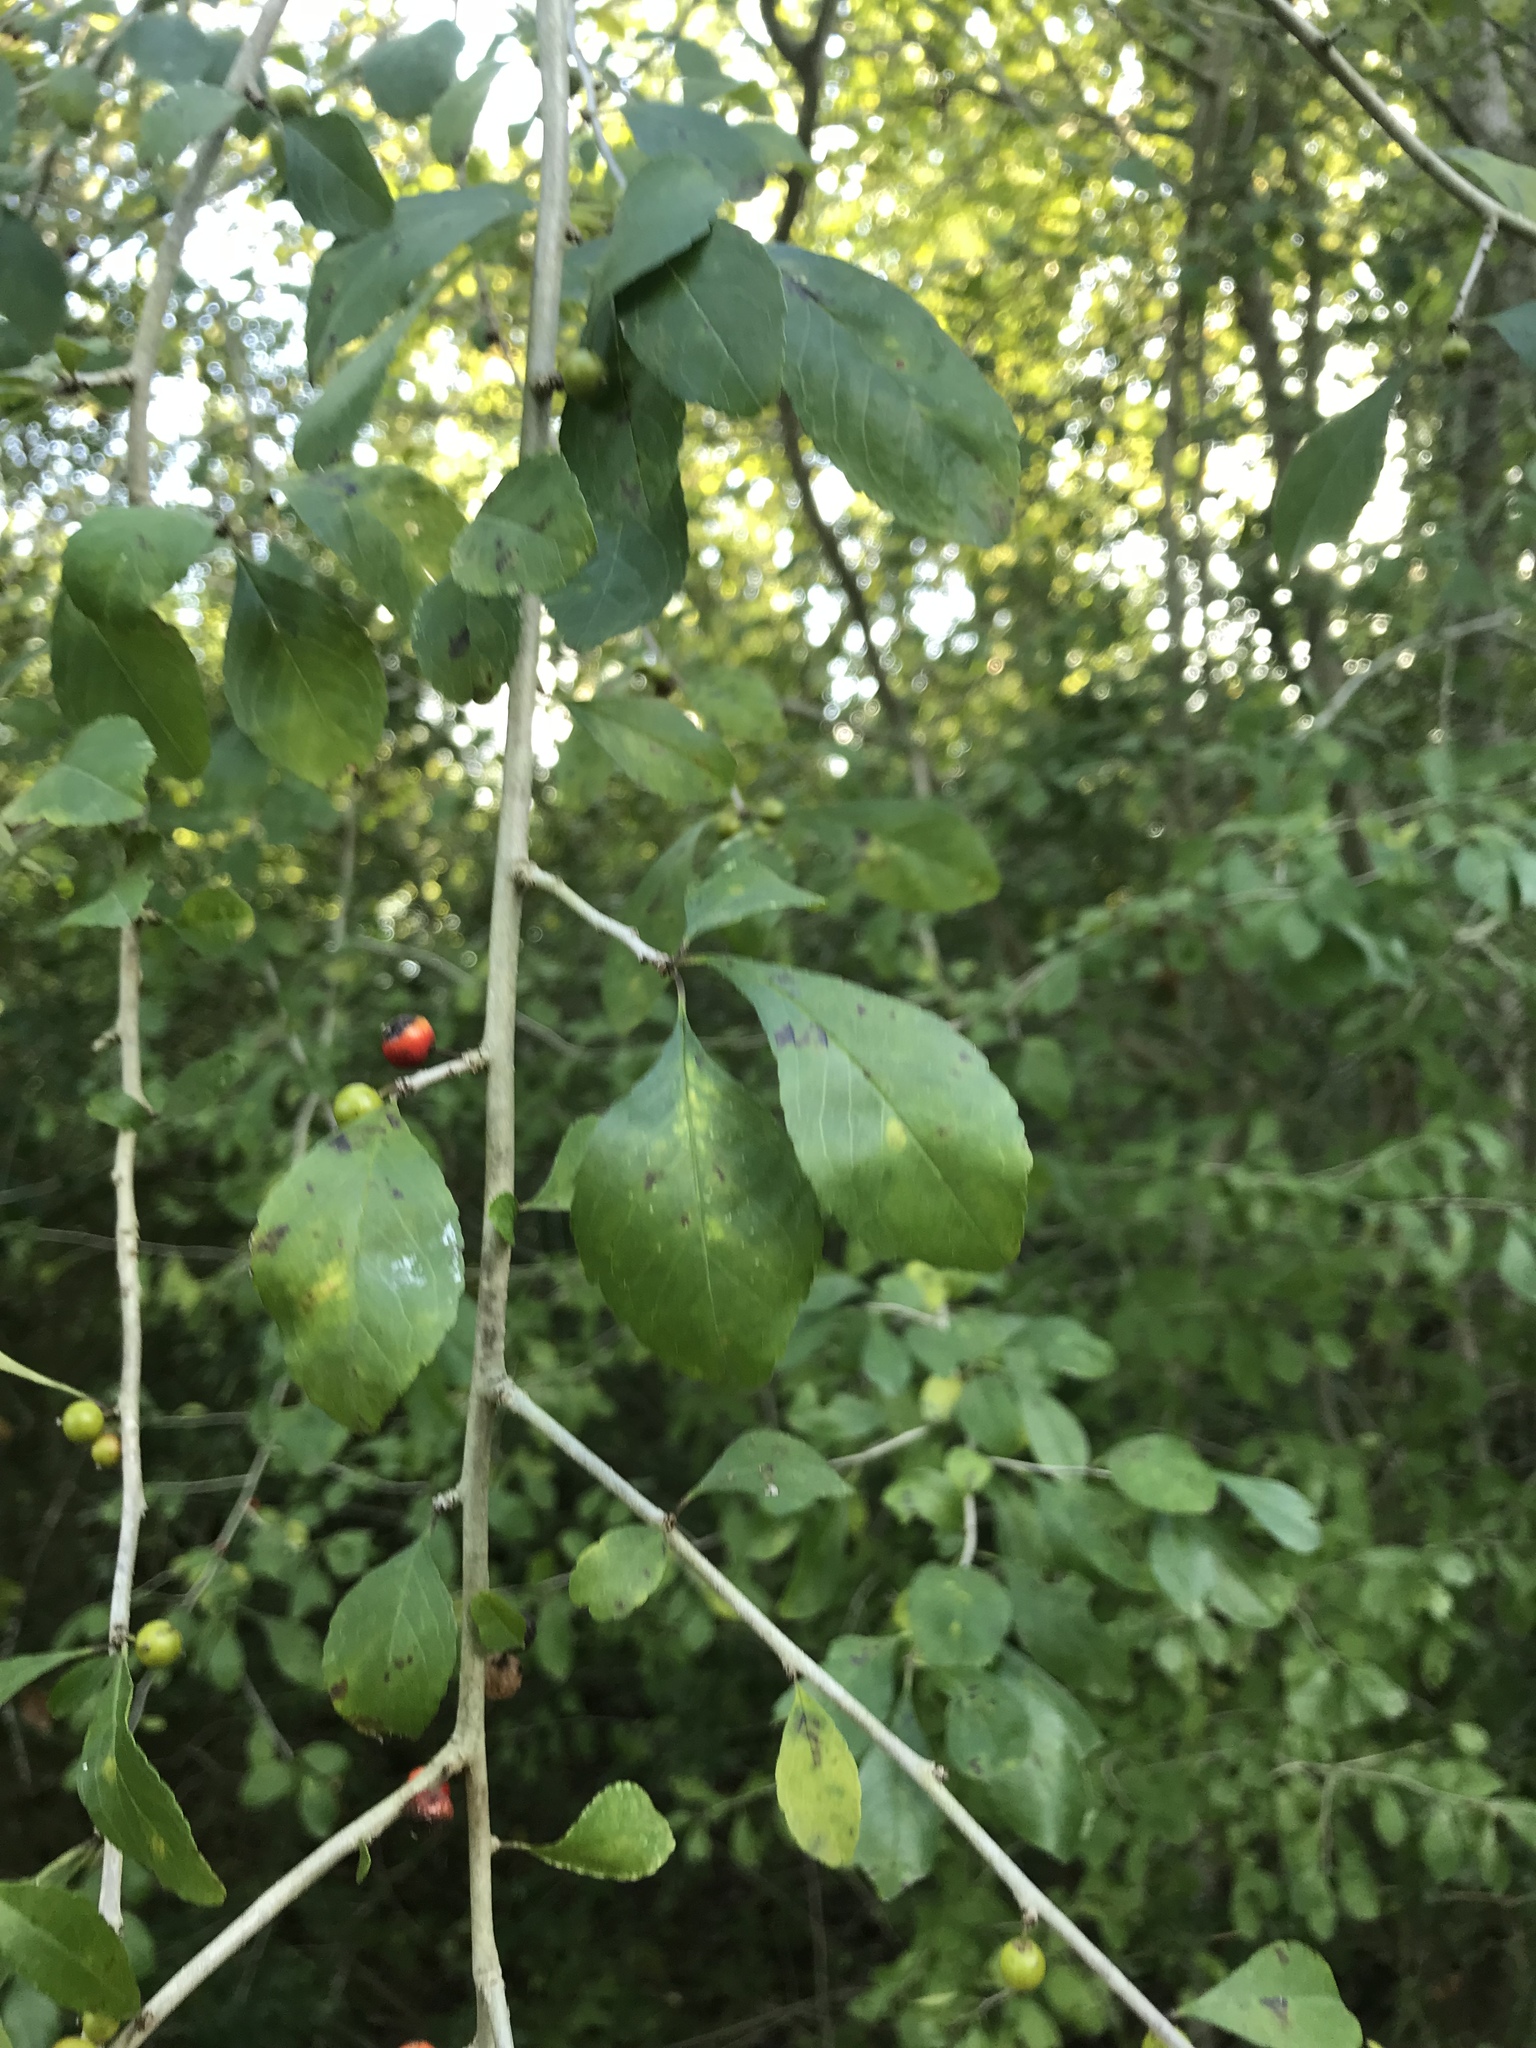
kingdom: Plantae
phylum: Tracheophyta
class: Magnoliopsida
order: Aquifoliales
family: Aquifoliaceae
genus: Ilex
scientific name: Ilex decidua
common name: Possum-haw
